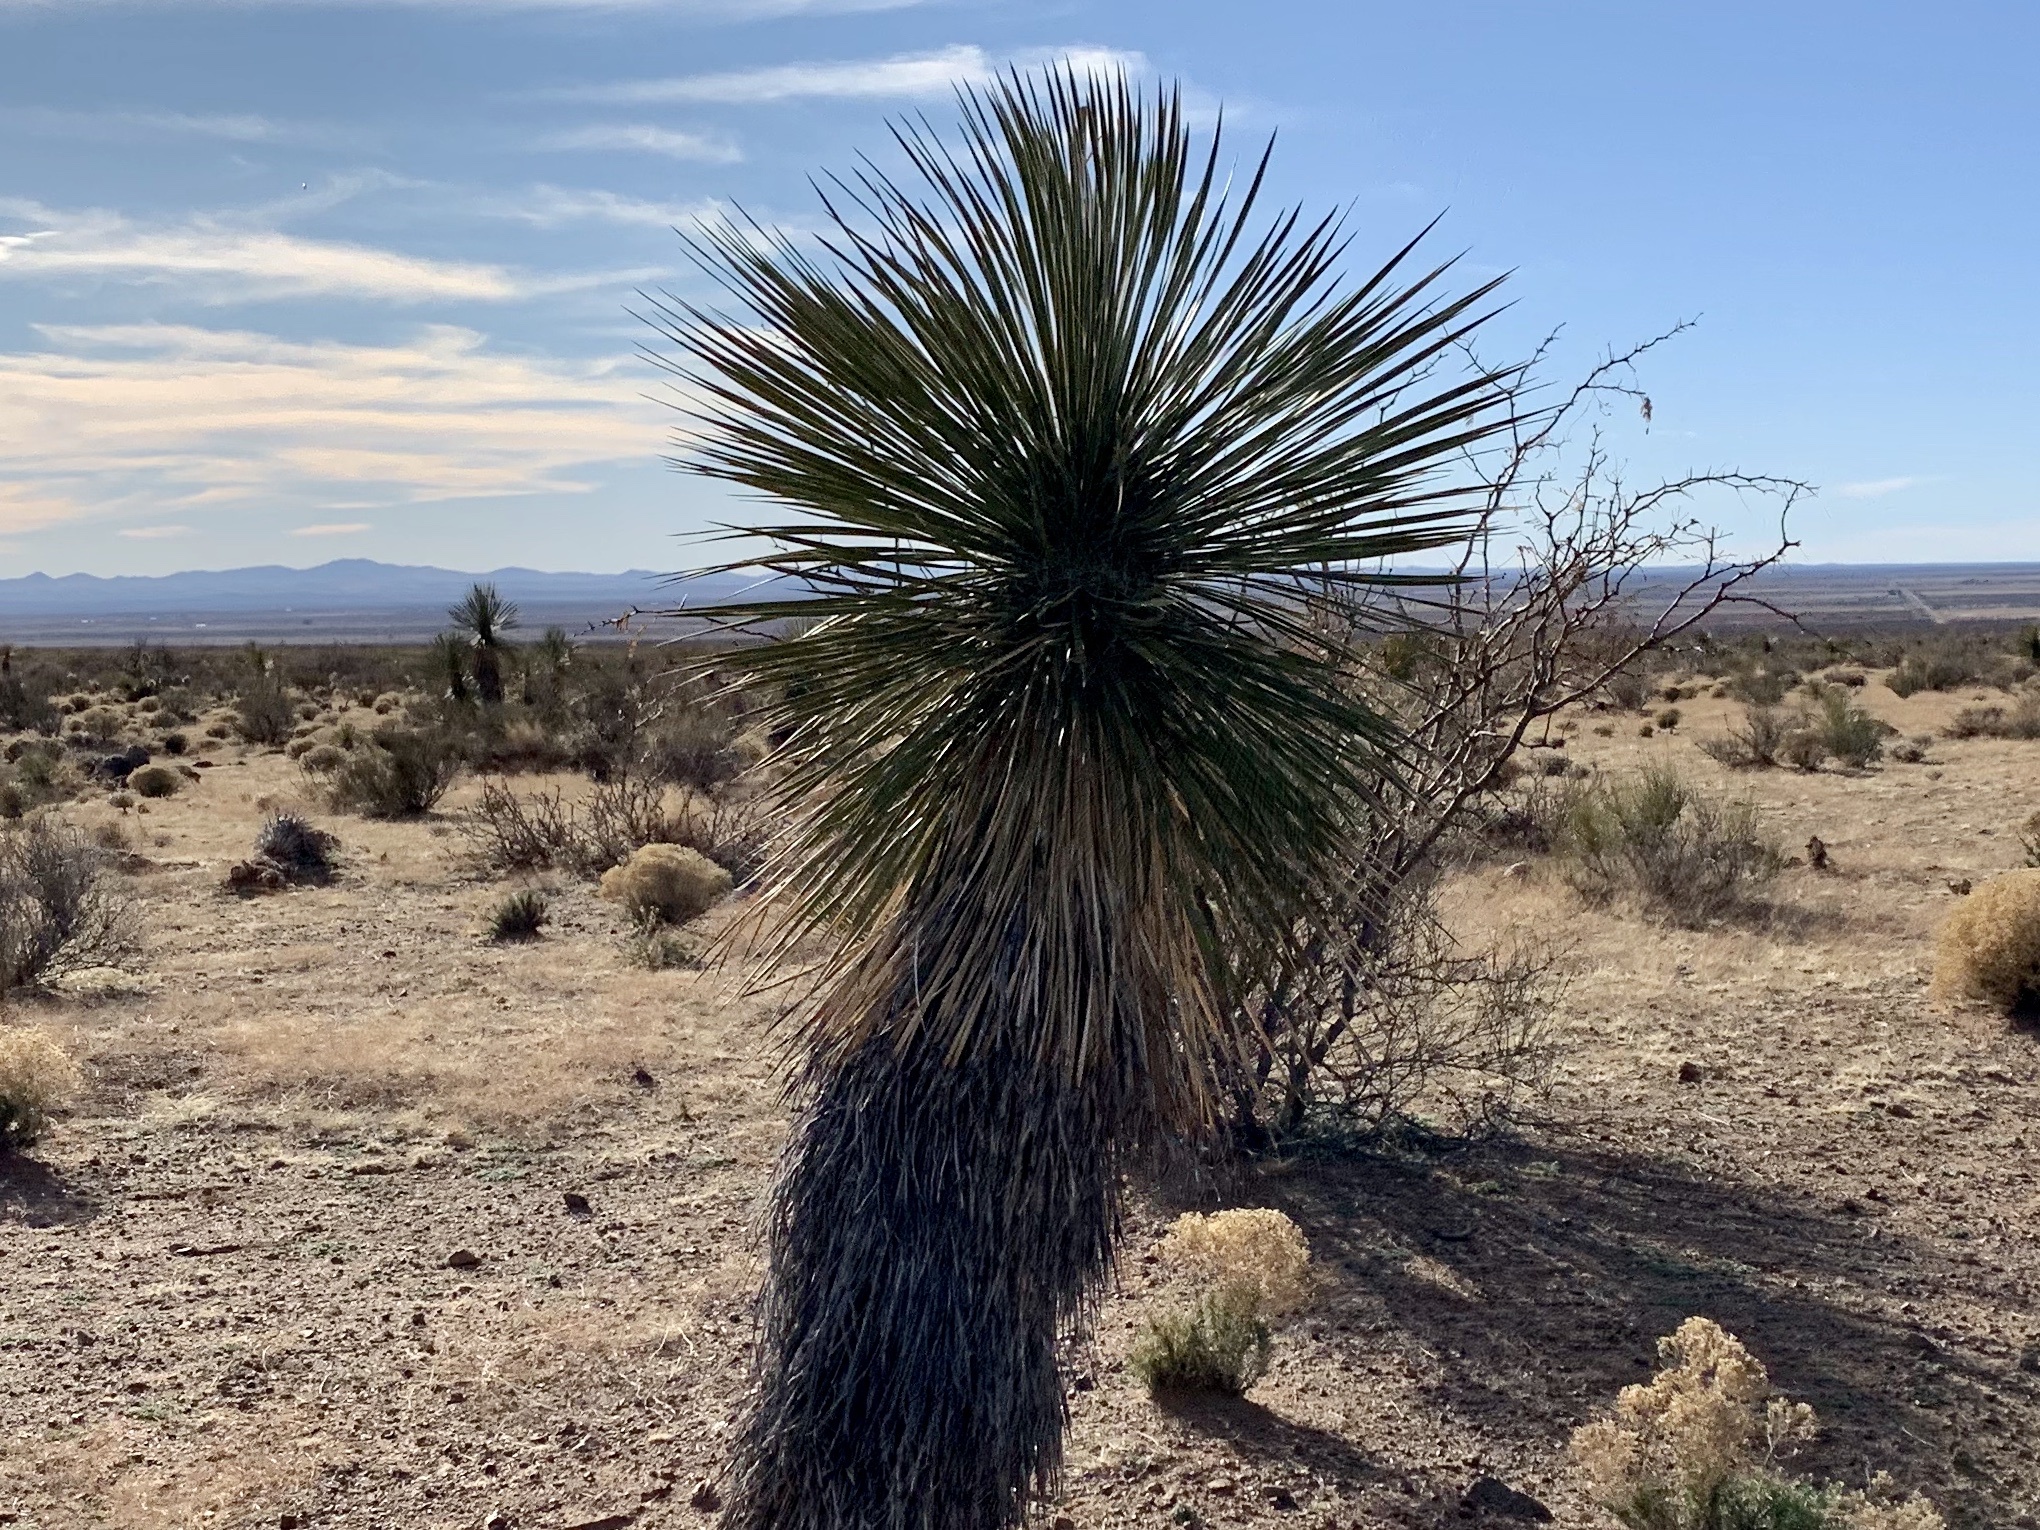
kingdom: Plantae
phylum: Tracheophyta
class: Liliopsida
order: Asparagales
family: Asparagaceae
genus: Yucca
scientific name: Yucca elata
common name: Palmella
